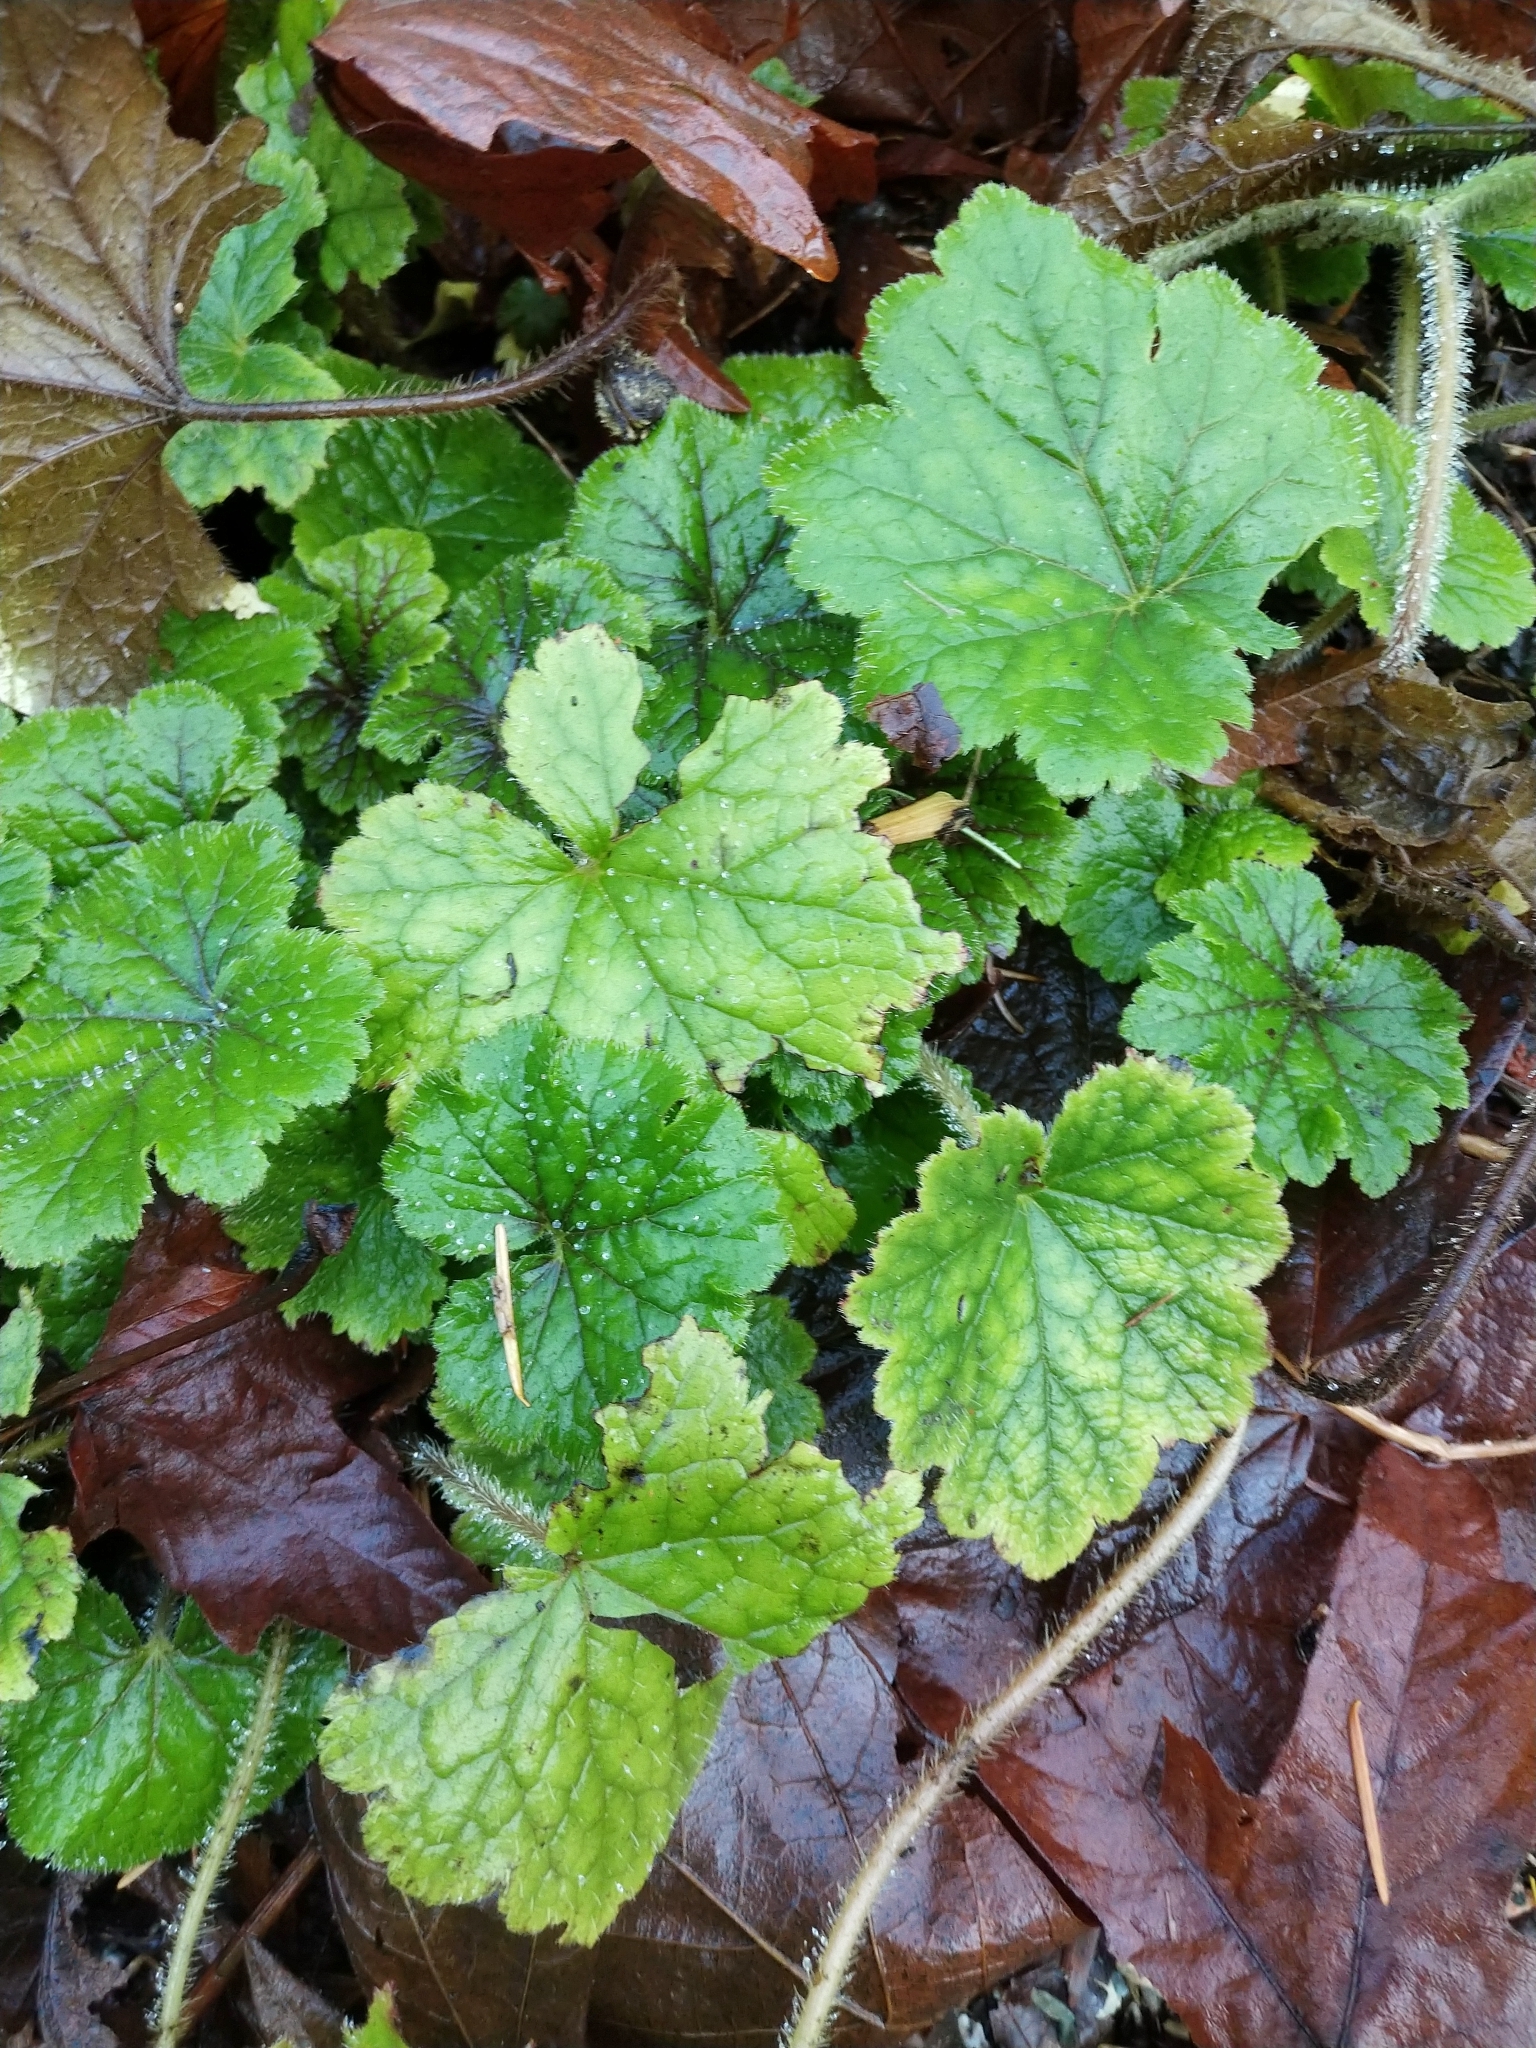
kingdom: Plantae
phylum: Tracheophyta
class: Magnoliopsida
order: Saxifragales
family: Saxifragaceae
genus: Tellima
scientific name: Tellima grandiflora
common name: Fringecups
